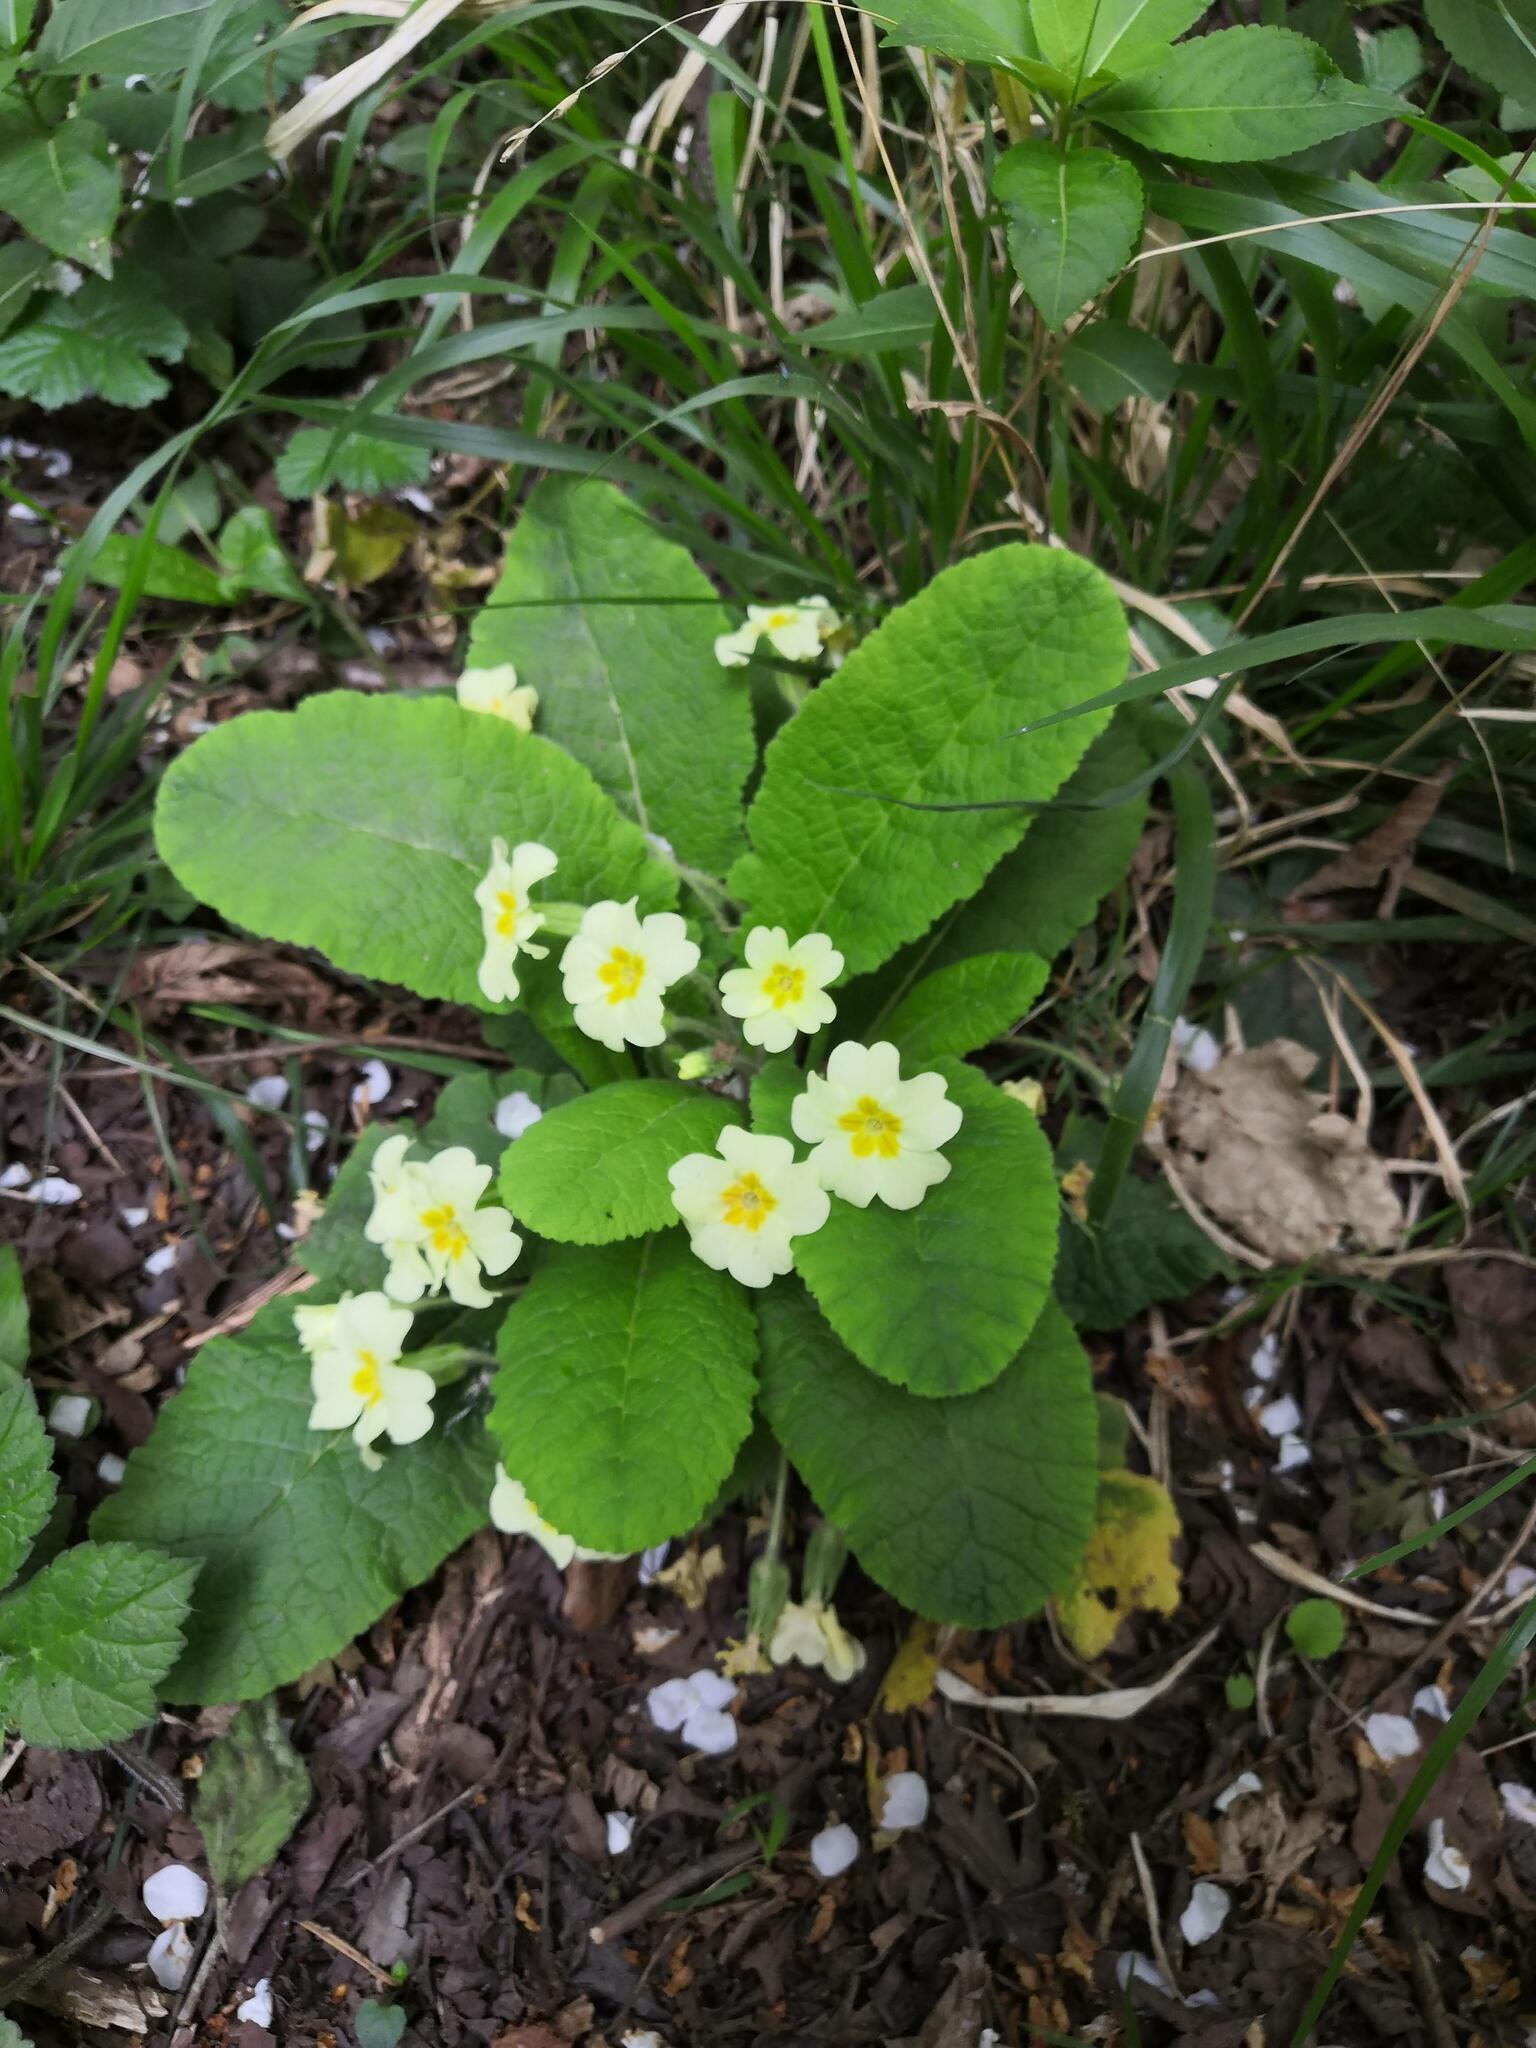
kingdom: Plantae
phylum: Tracheophyta
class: Magnoliopsida
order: Ericales
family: Primulaceae
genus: Primula
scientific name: Primula vulgaris
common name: Primrose
